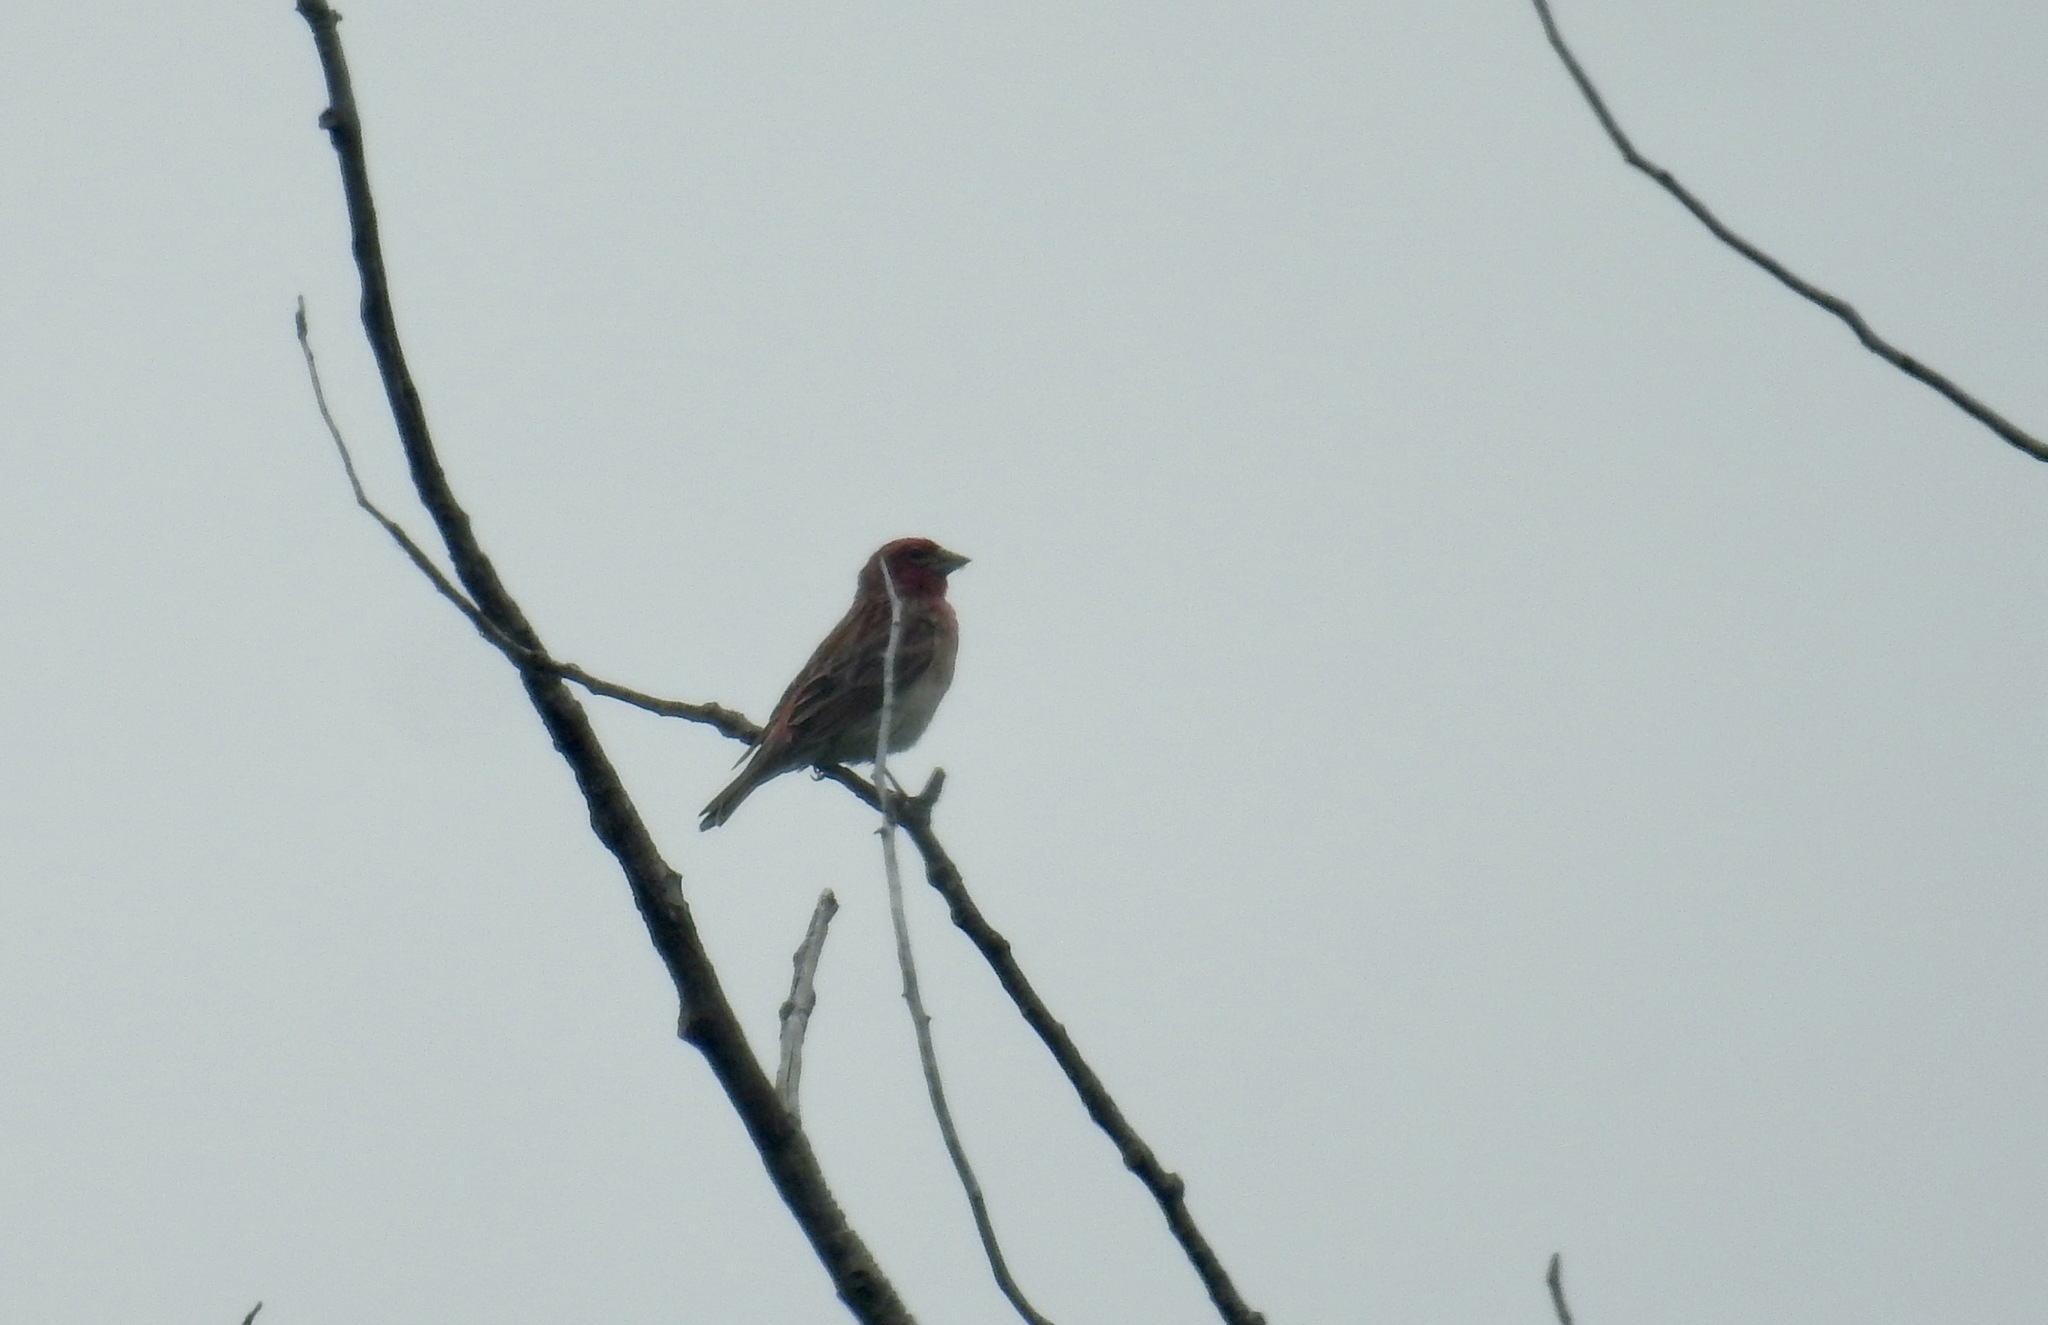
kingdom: Animalia
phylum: Chordata
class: Aves
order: Passeriformes
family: Fringillidae
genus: Haemorhous
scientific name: Haemorhous cassinii
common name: Cassin's finch
